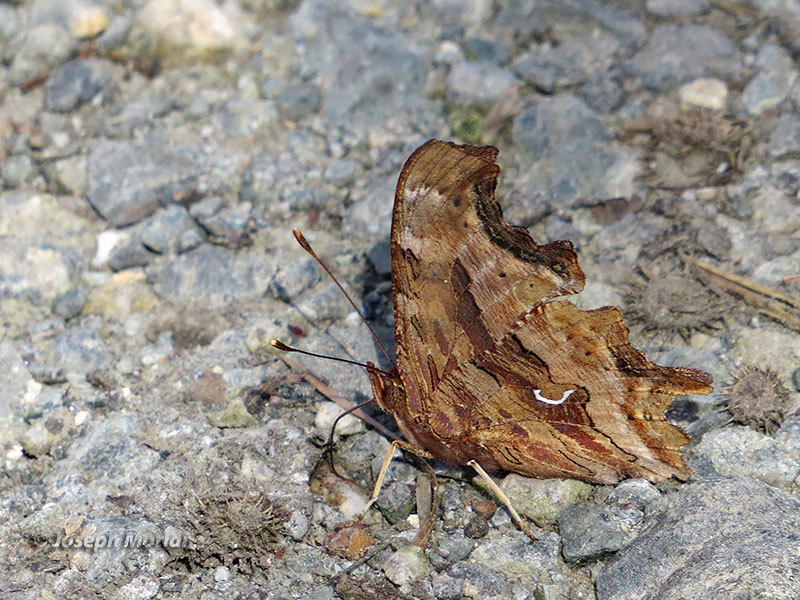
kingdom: Animalia
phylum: Arthropoda
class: Insecta
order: Lepidoptera
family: Nymphalidae
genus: Polygonia
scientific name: Polygonia satyrus
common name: Satyr angle wing
